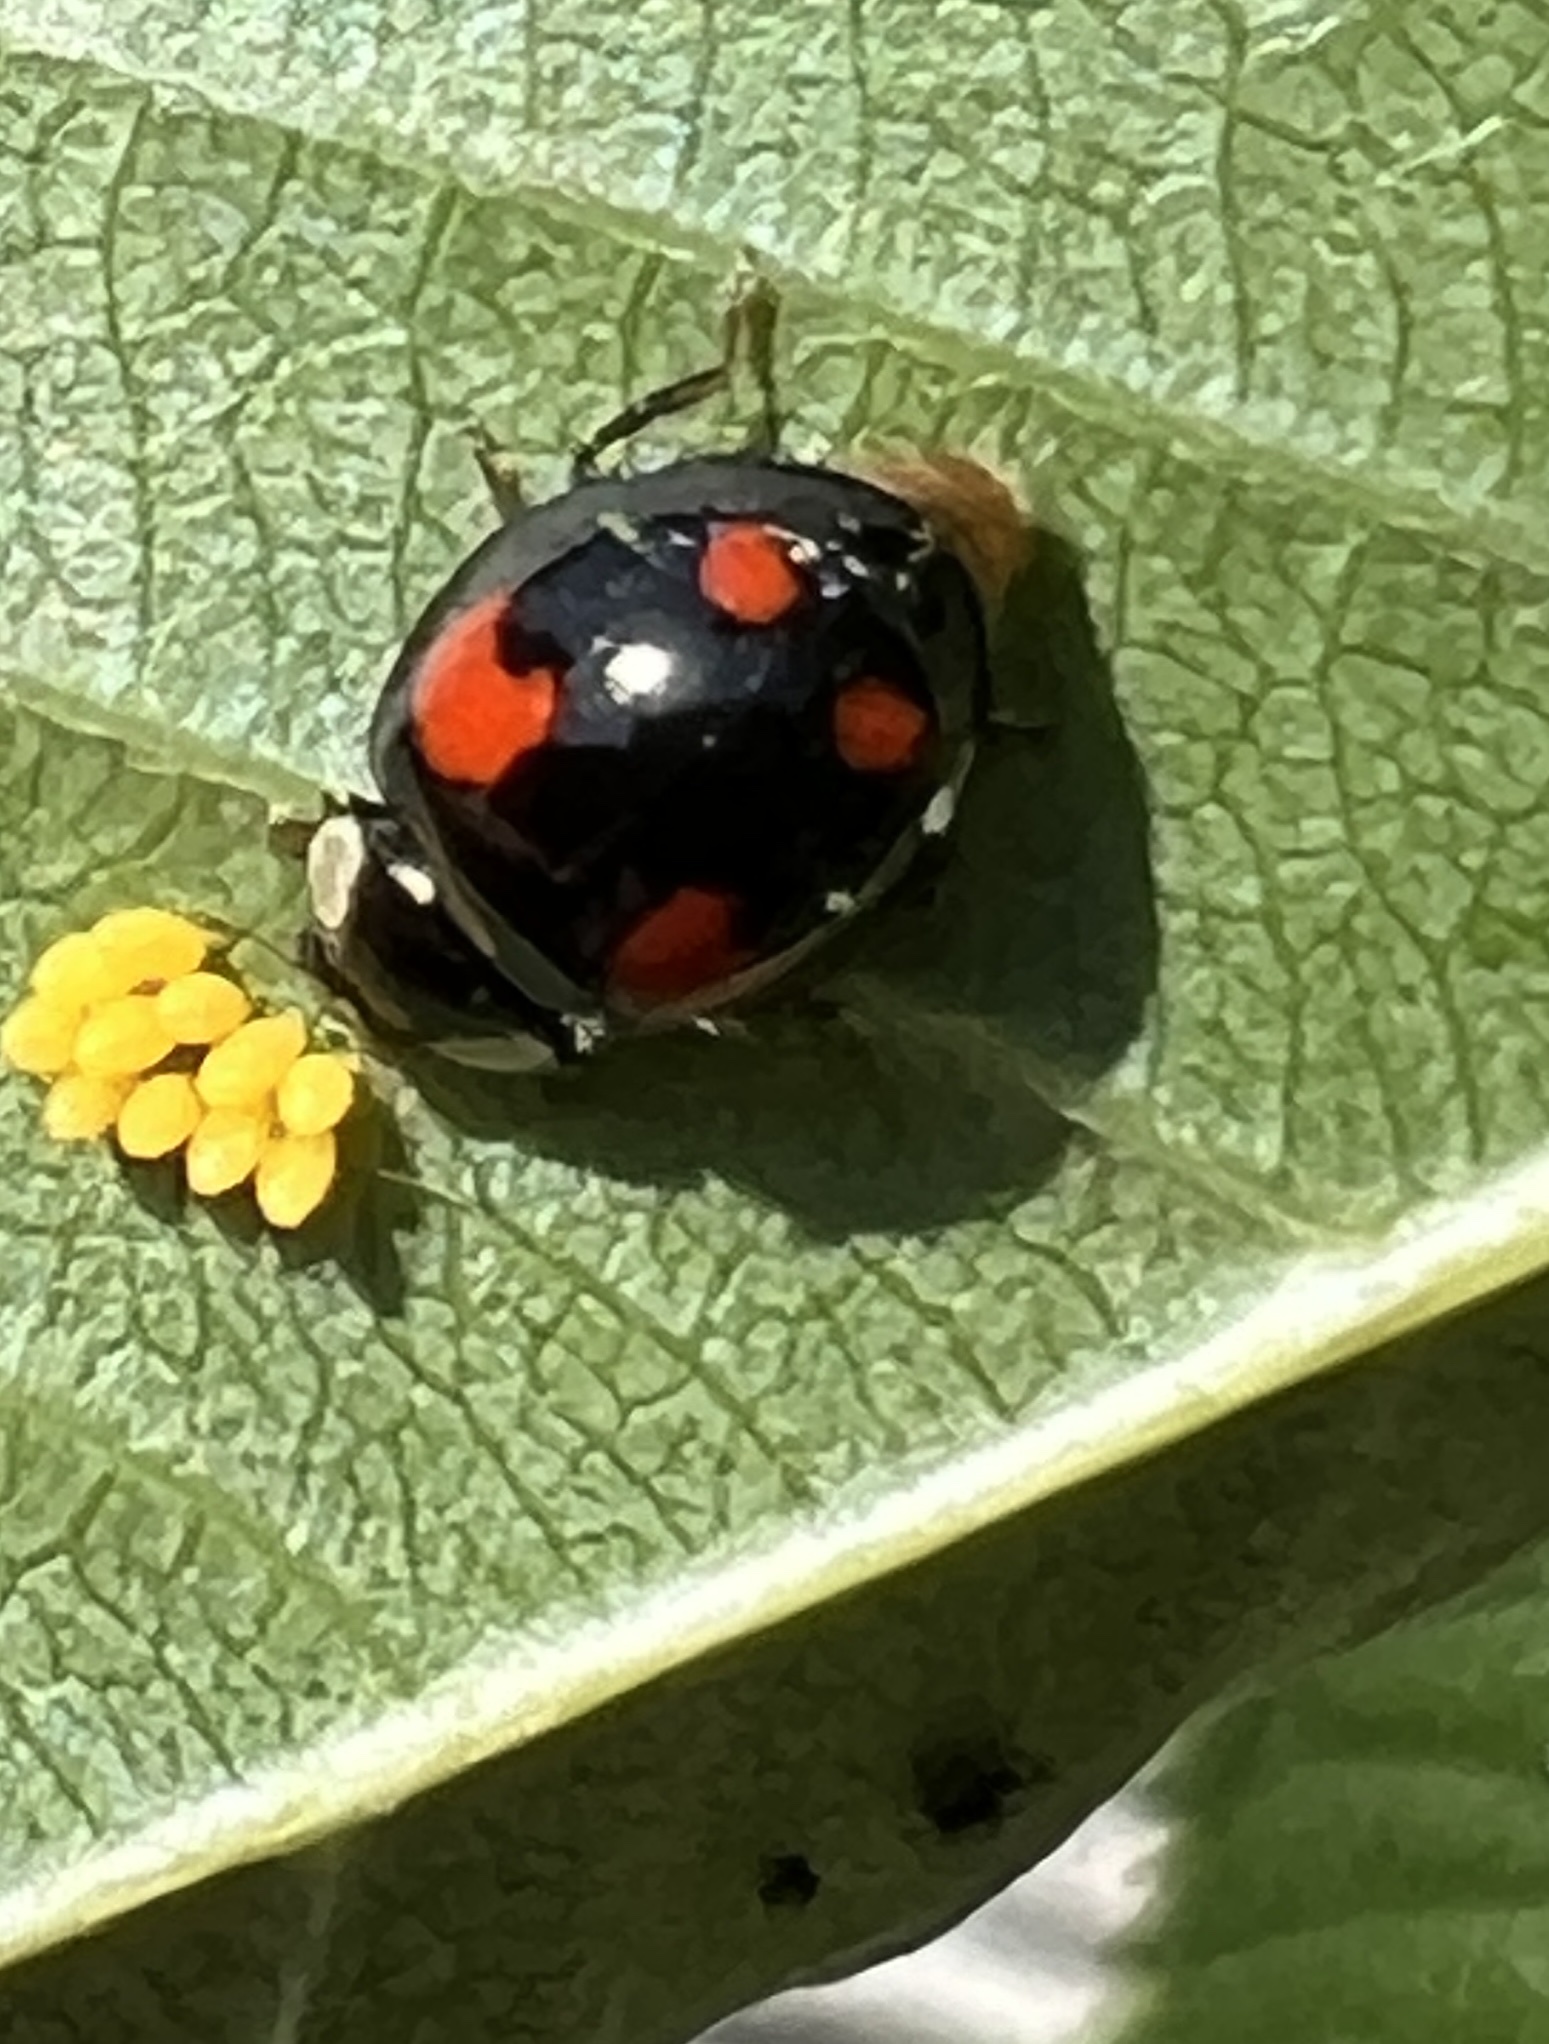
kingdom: Animalia
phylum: Arthropoda
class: Insecta
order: Coleoptera
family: Coccinellidae
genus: Harmonia
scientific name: Harmonia axyridis
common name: Harlequin ladybird
